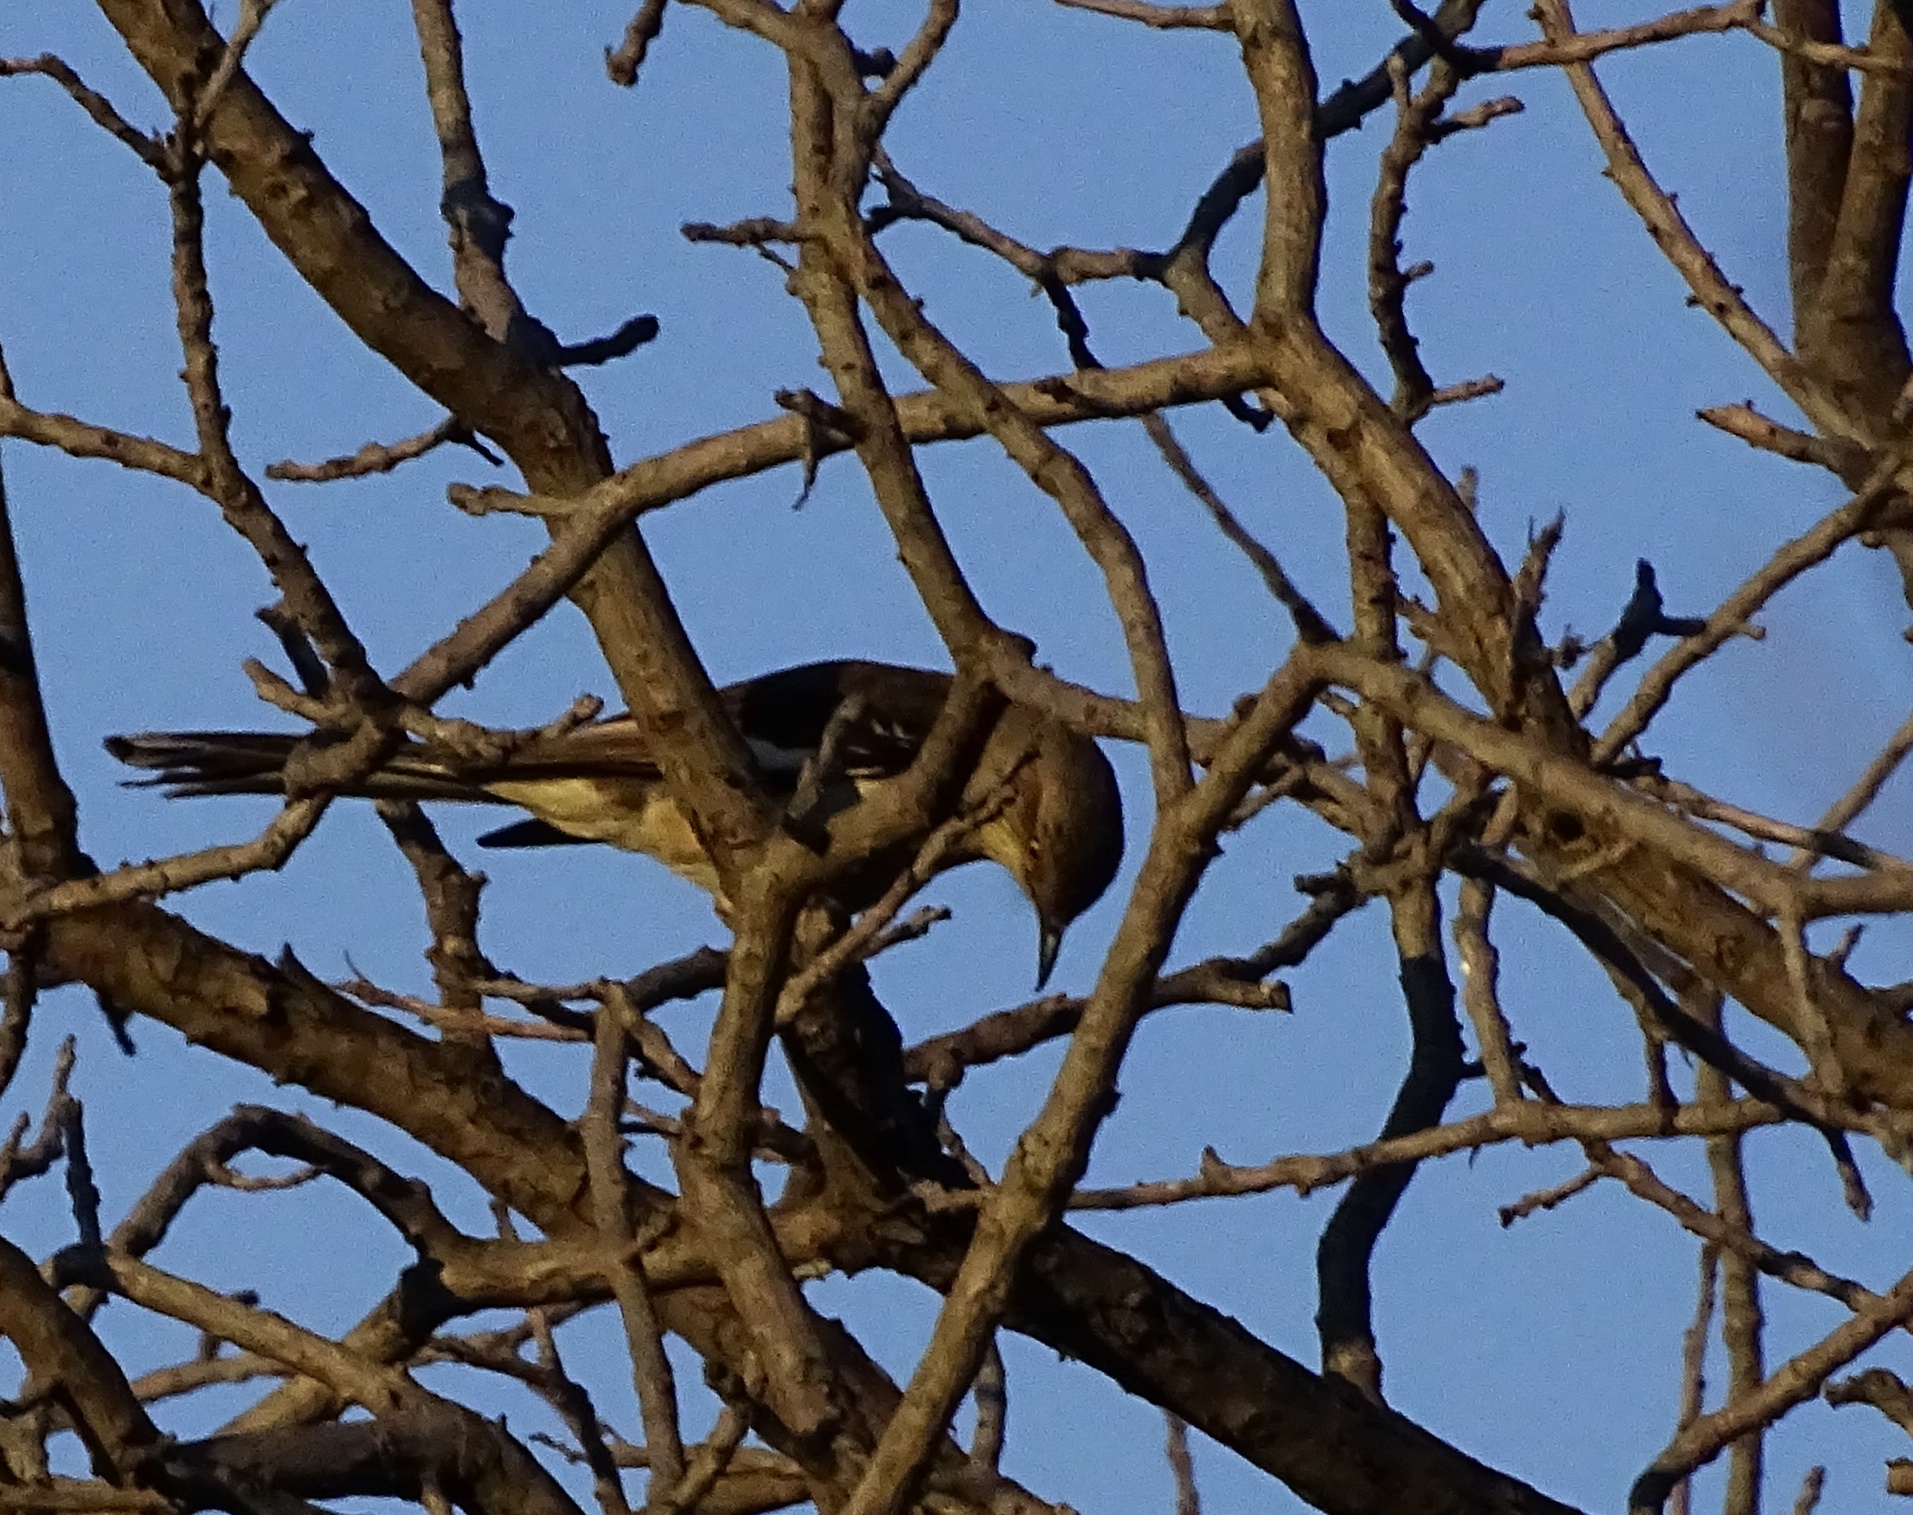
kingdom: Animalia
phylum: Chordata
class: Aves
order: Passeriformes
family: Mimidae
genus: Mimus
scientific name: Mimus polyglottos
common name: Northern mockingbird
